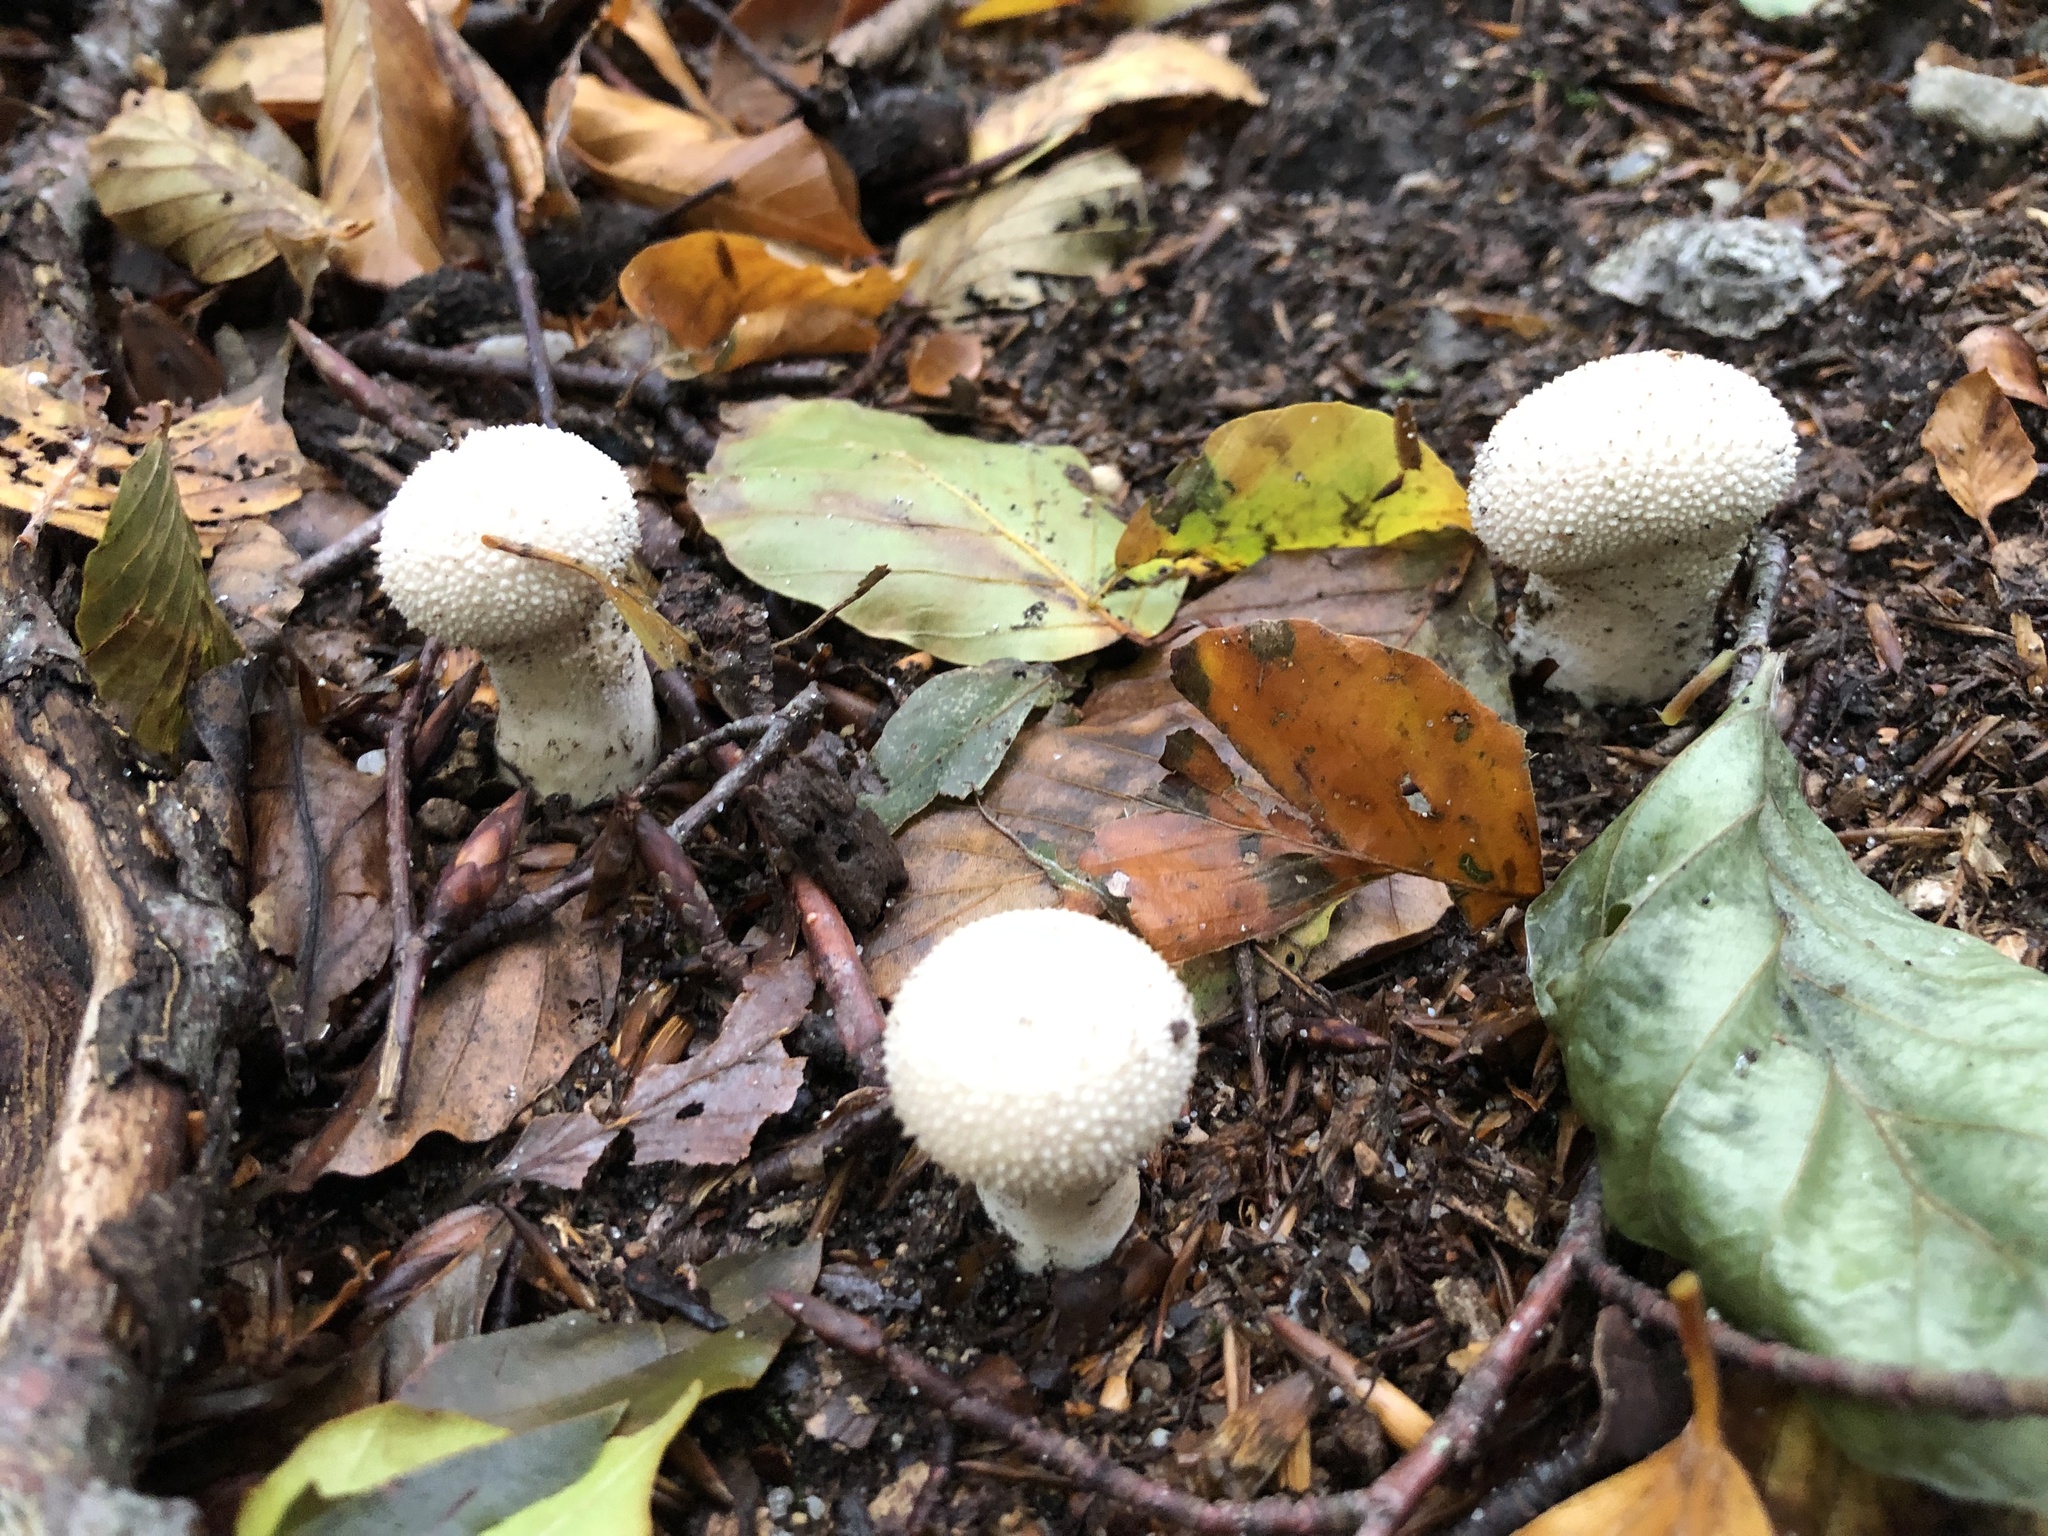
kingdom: Fungi
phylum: Basidiomycota
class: Agaricomycetes
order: Agaricales
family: Lycoperdaceae
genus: Lycoperdon
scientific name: Lycoperdon perlatum
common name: Common puffball
